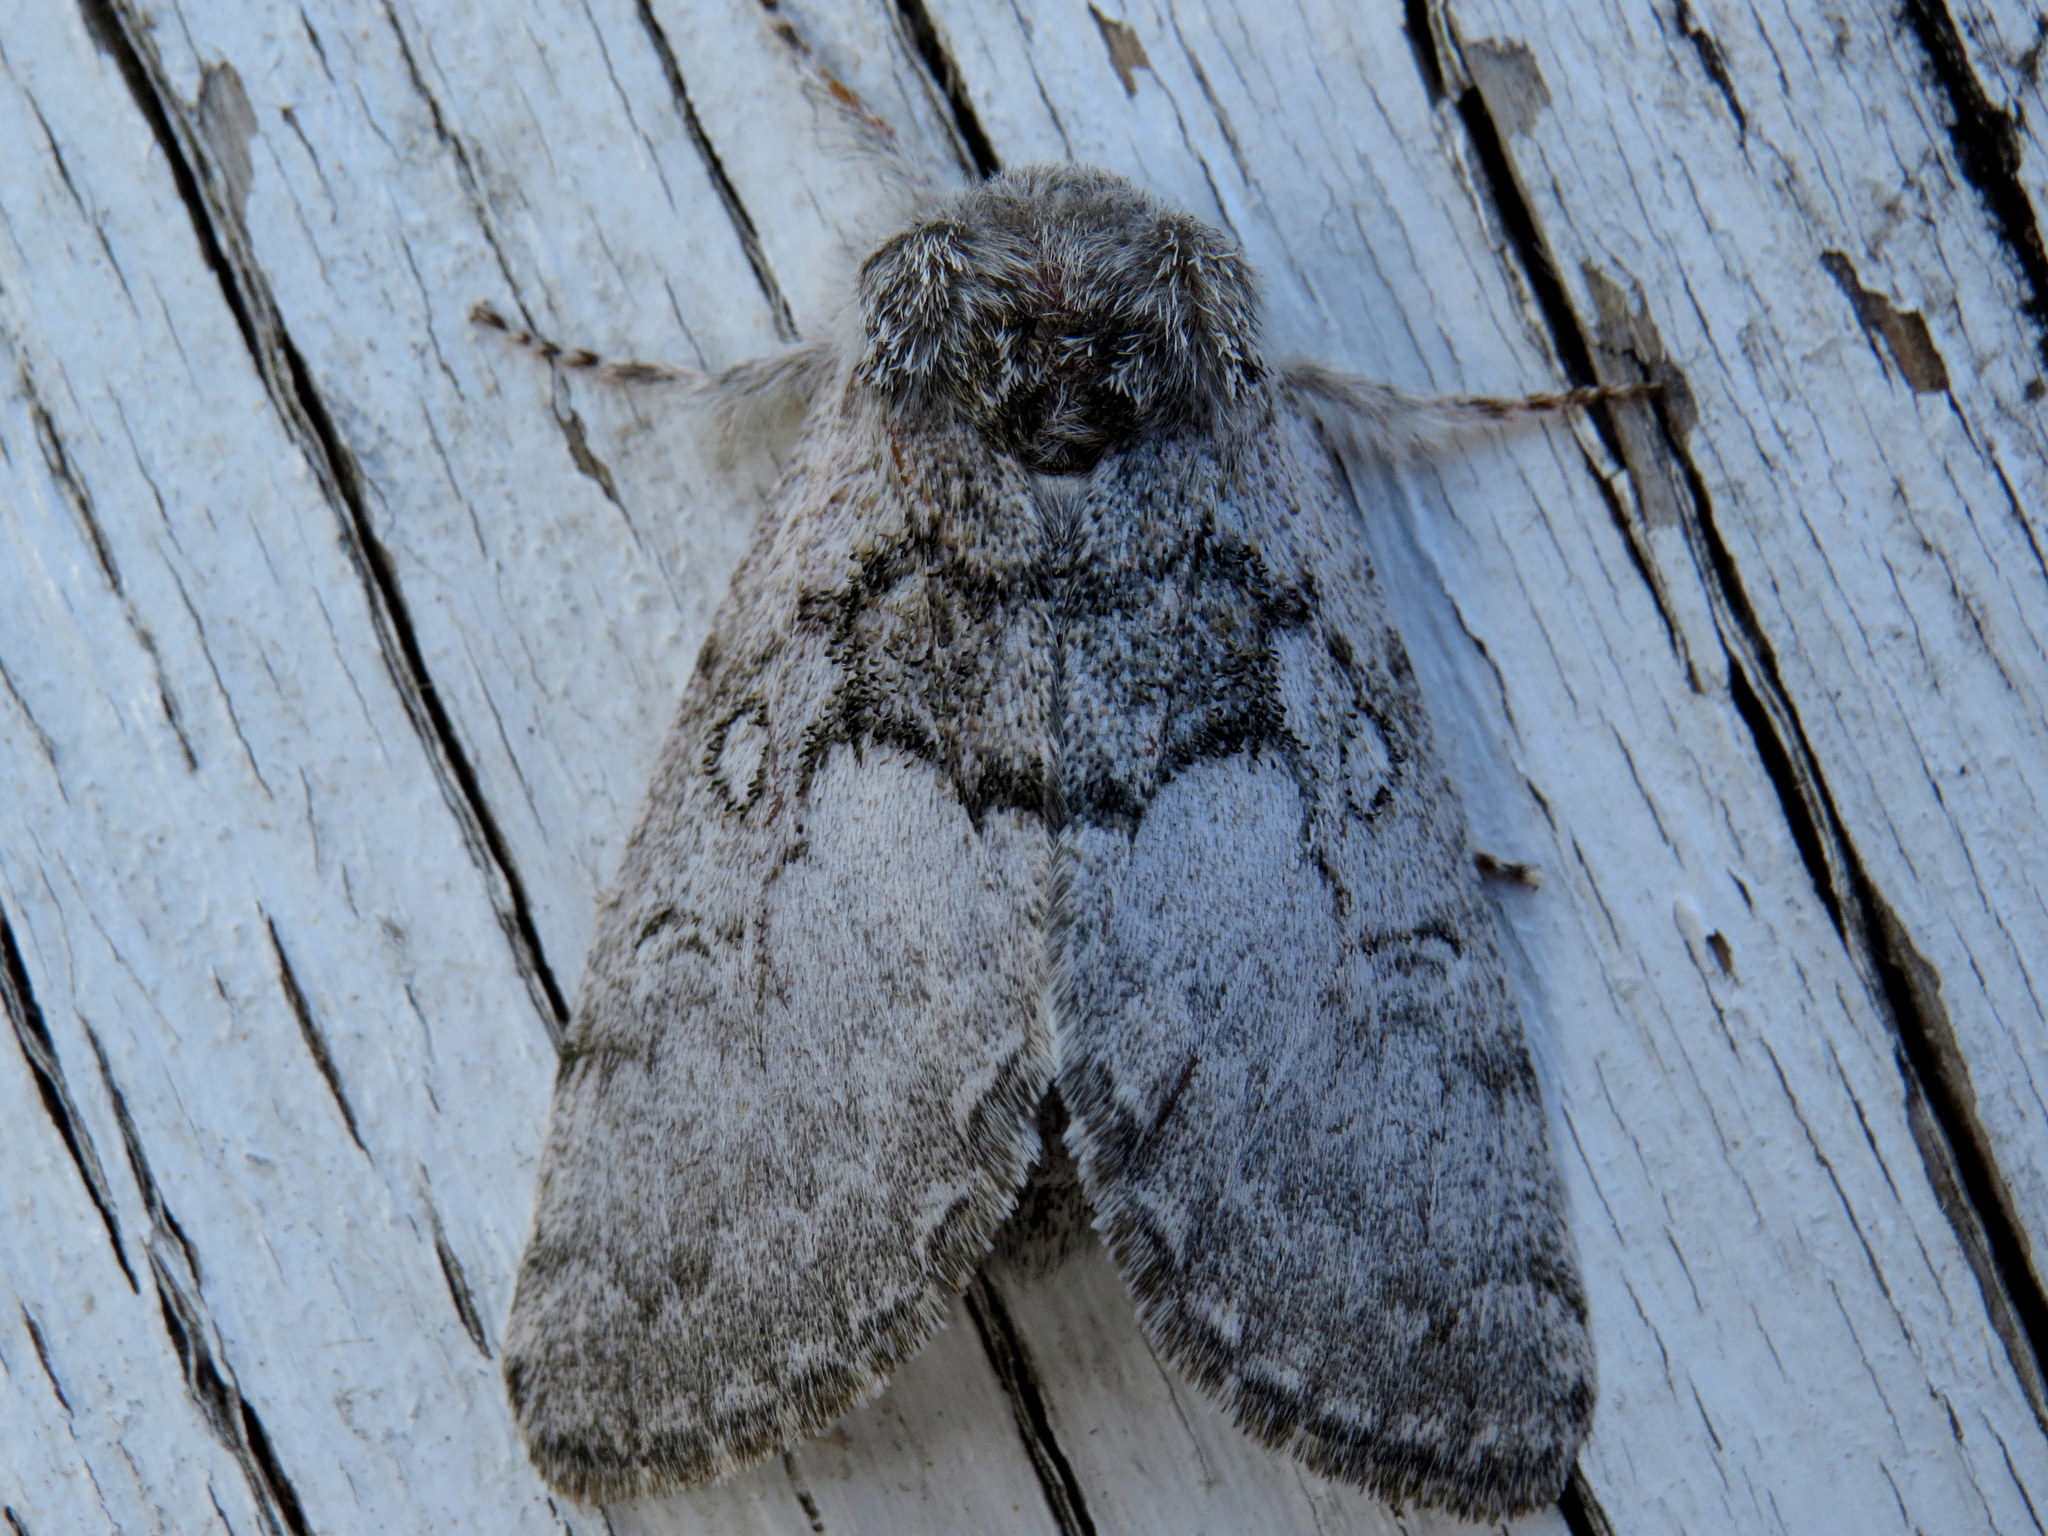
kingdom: Animalia
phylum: Arthropoda
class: Insecta
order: Lepidoptera
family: Noctuidae
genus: Colocasia
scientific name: Colocasia flavicornis
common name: Saddled yellowhorn
